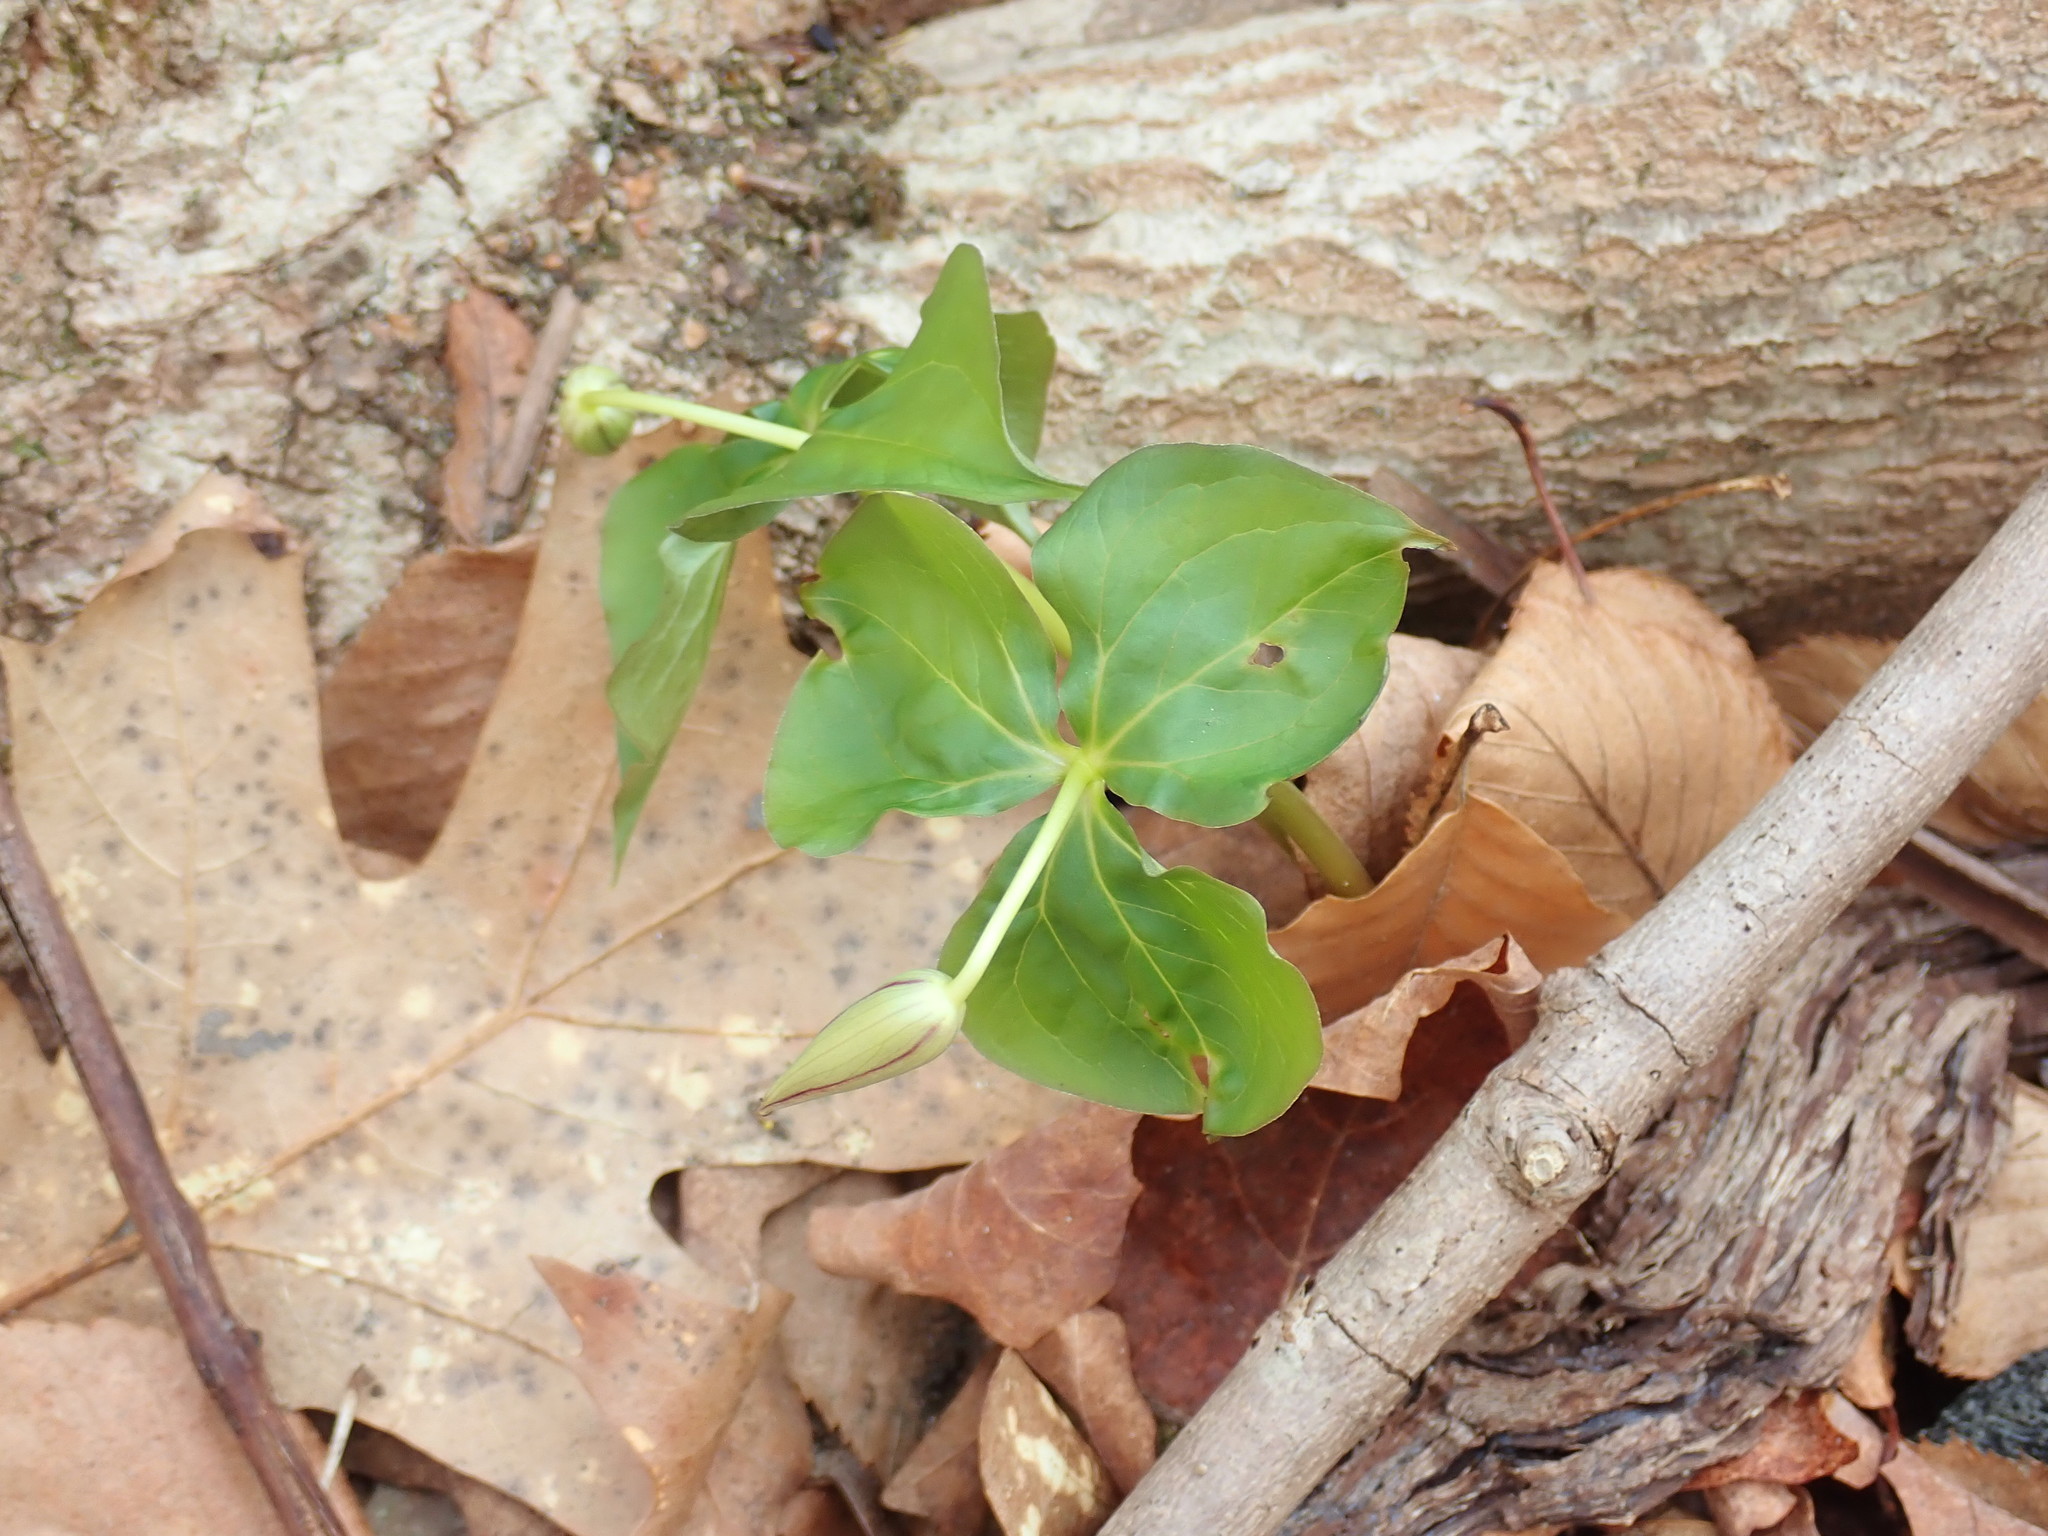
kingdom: Plantae
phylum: Tracheophyta
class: Liliopsida
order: Liliales
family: Melanthiaceae
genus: Trillium
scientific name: Trillium erectum
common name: Purple trillium
